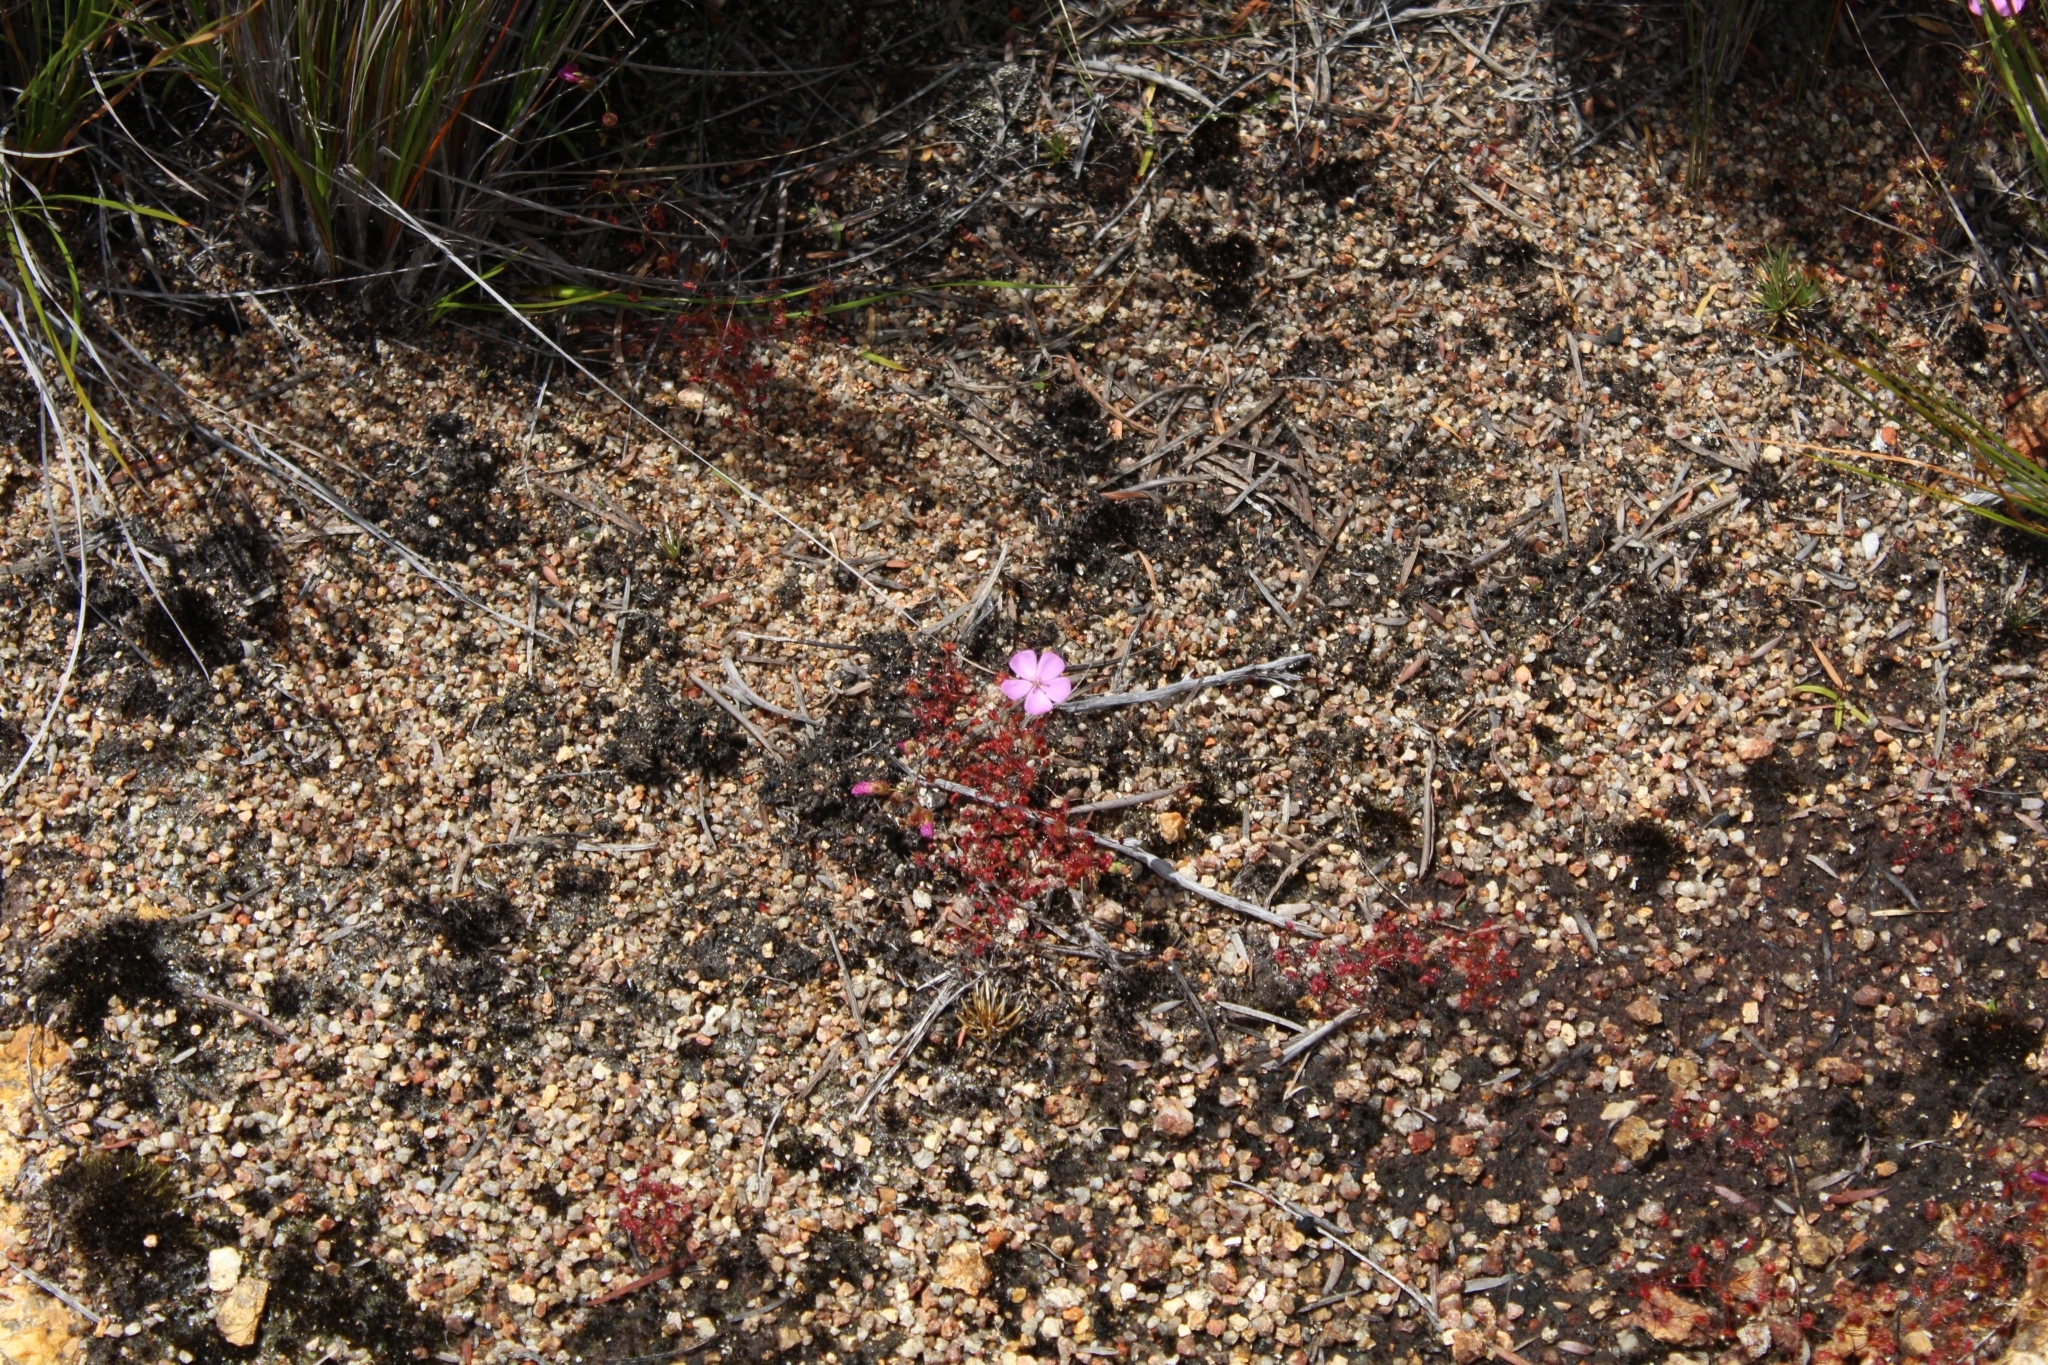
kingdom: Plantae
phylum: Tracheophyta
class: Magnoliopsida
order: Caryophyllales
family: Droseraceae
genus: Drosera
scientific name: Drosera
